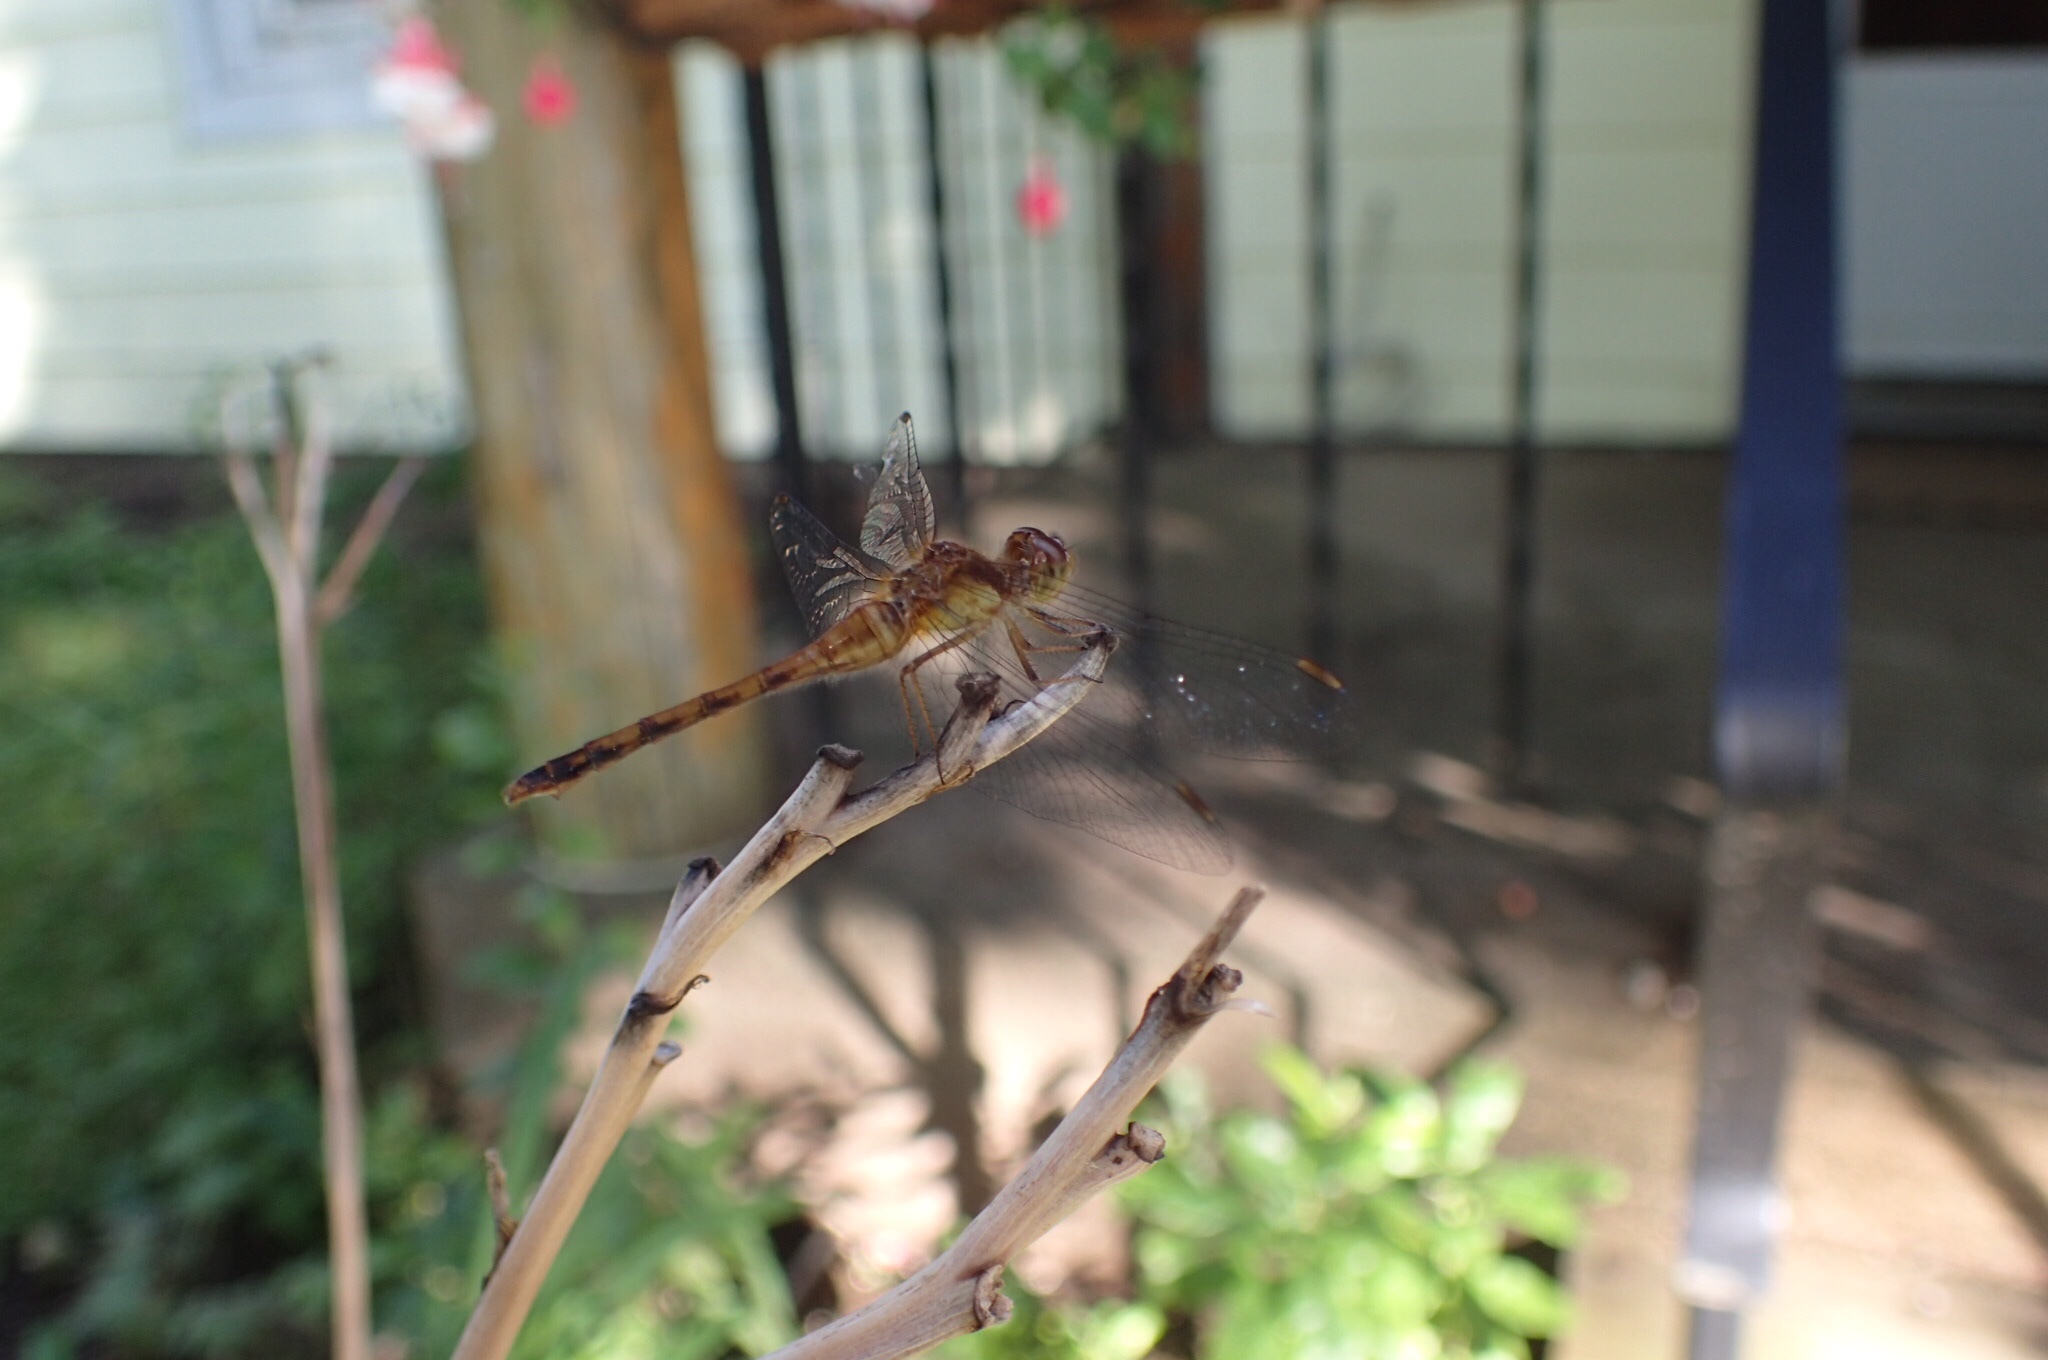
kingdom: Animalia
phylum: Arthropoda
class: Insecta
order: Odonata
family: Libellulidae
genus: Sympetrum
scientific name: Sympetrum vicinum
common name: Autumn meadowhawk
